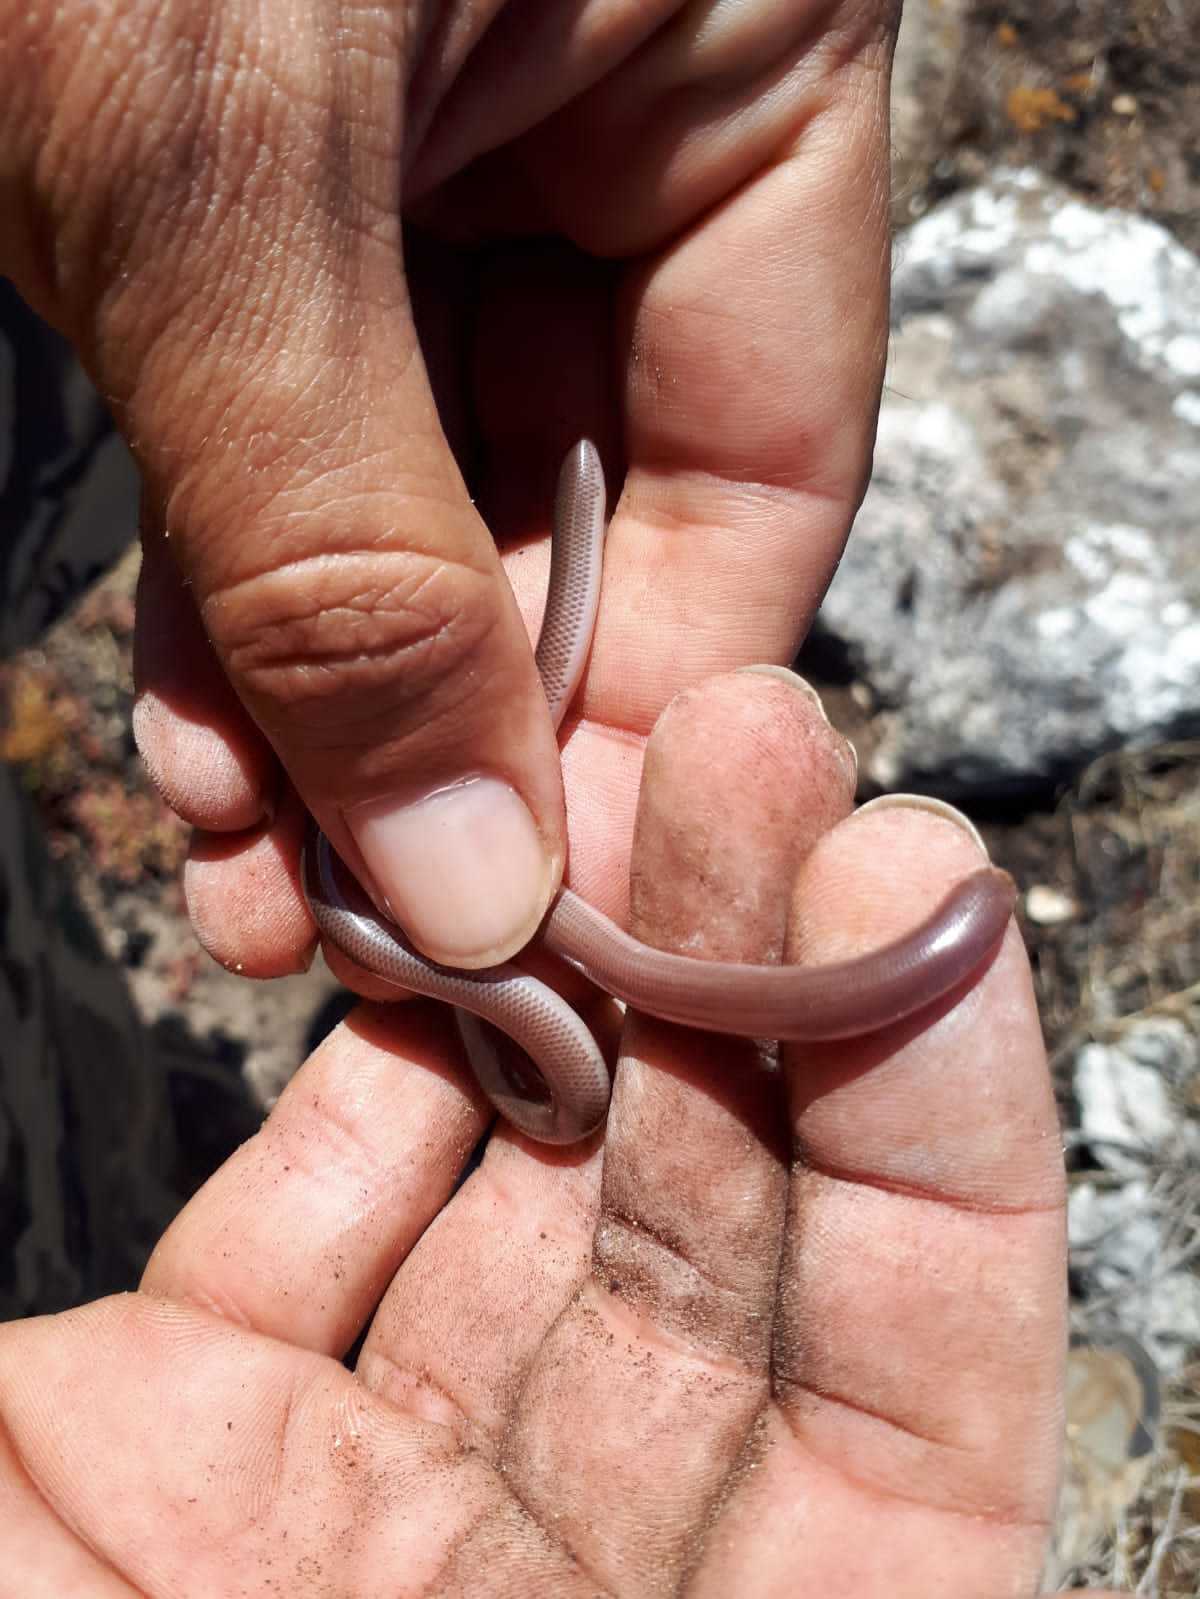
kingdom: Animalia
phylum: Chordata
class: Squamata
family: Typhlopidae
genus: Rhinotyphlops
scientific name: Rhinotyphlops lalandei
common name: Delalande's beaked blind snake
